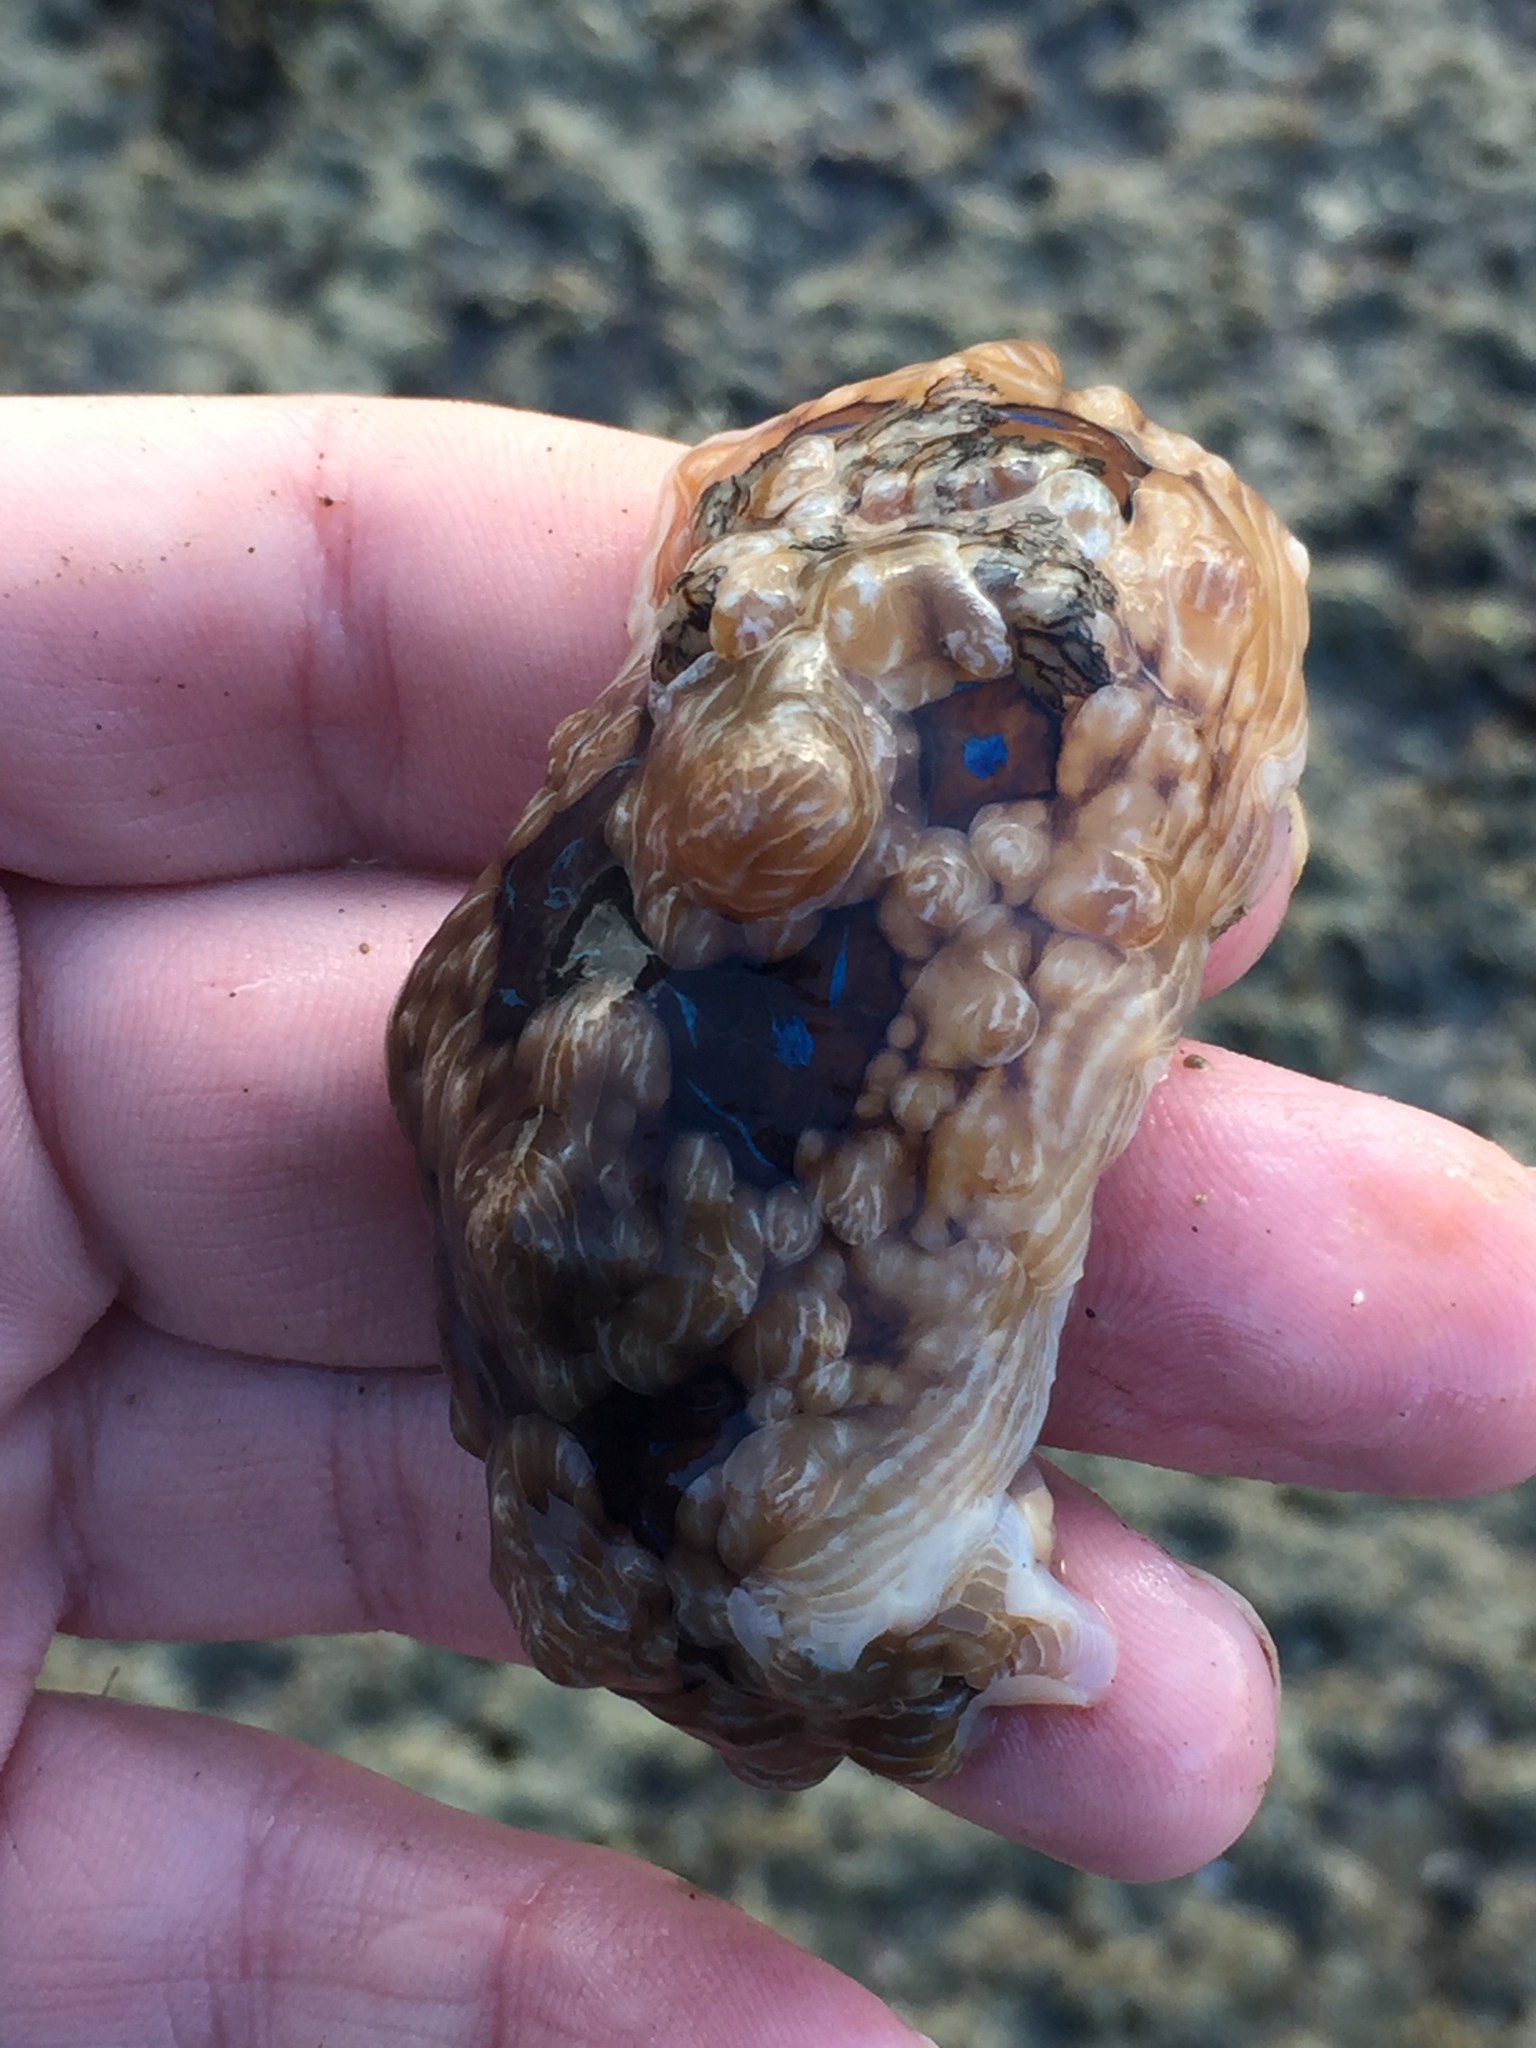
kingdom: Animalia
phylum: Mollusca
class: Gastropoda
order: Nudibranchia
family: Dendrodorididae
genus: Dendrodoris
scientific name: Dendrodoris krusensternii
